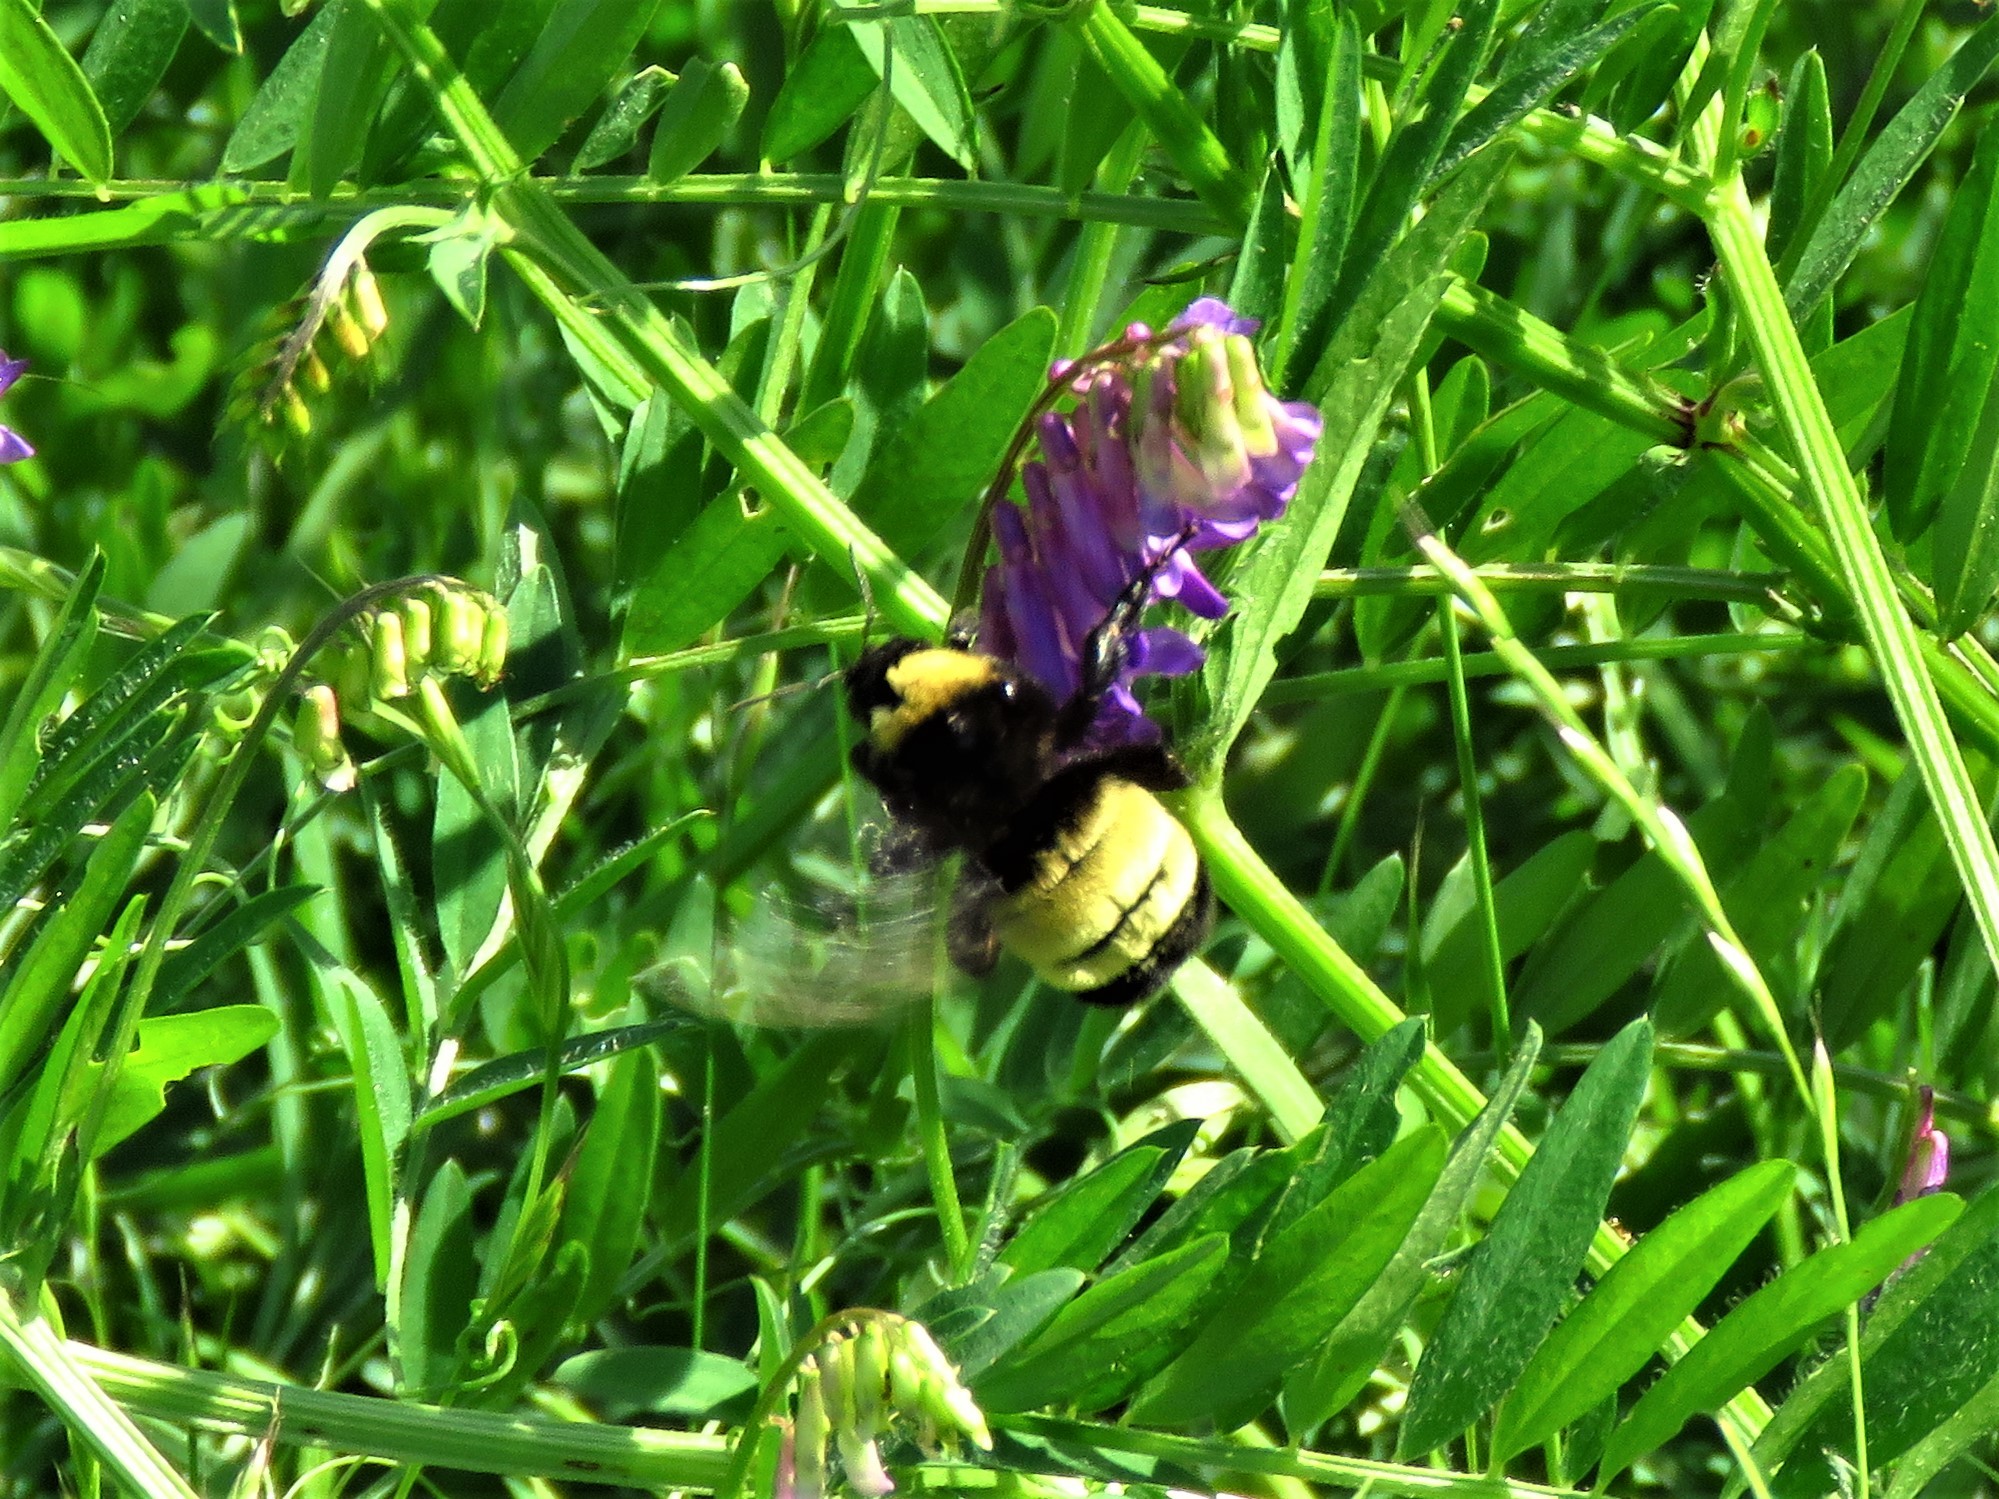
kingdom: Animalia
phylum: Arthropoda
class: Insecta
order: Hymenoptera
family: Apidae
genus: Bombus
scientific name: Bombus pensylvanicus
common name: Bumble bee
